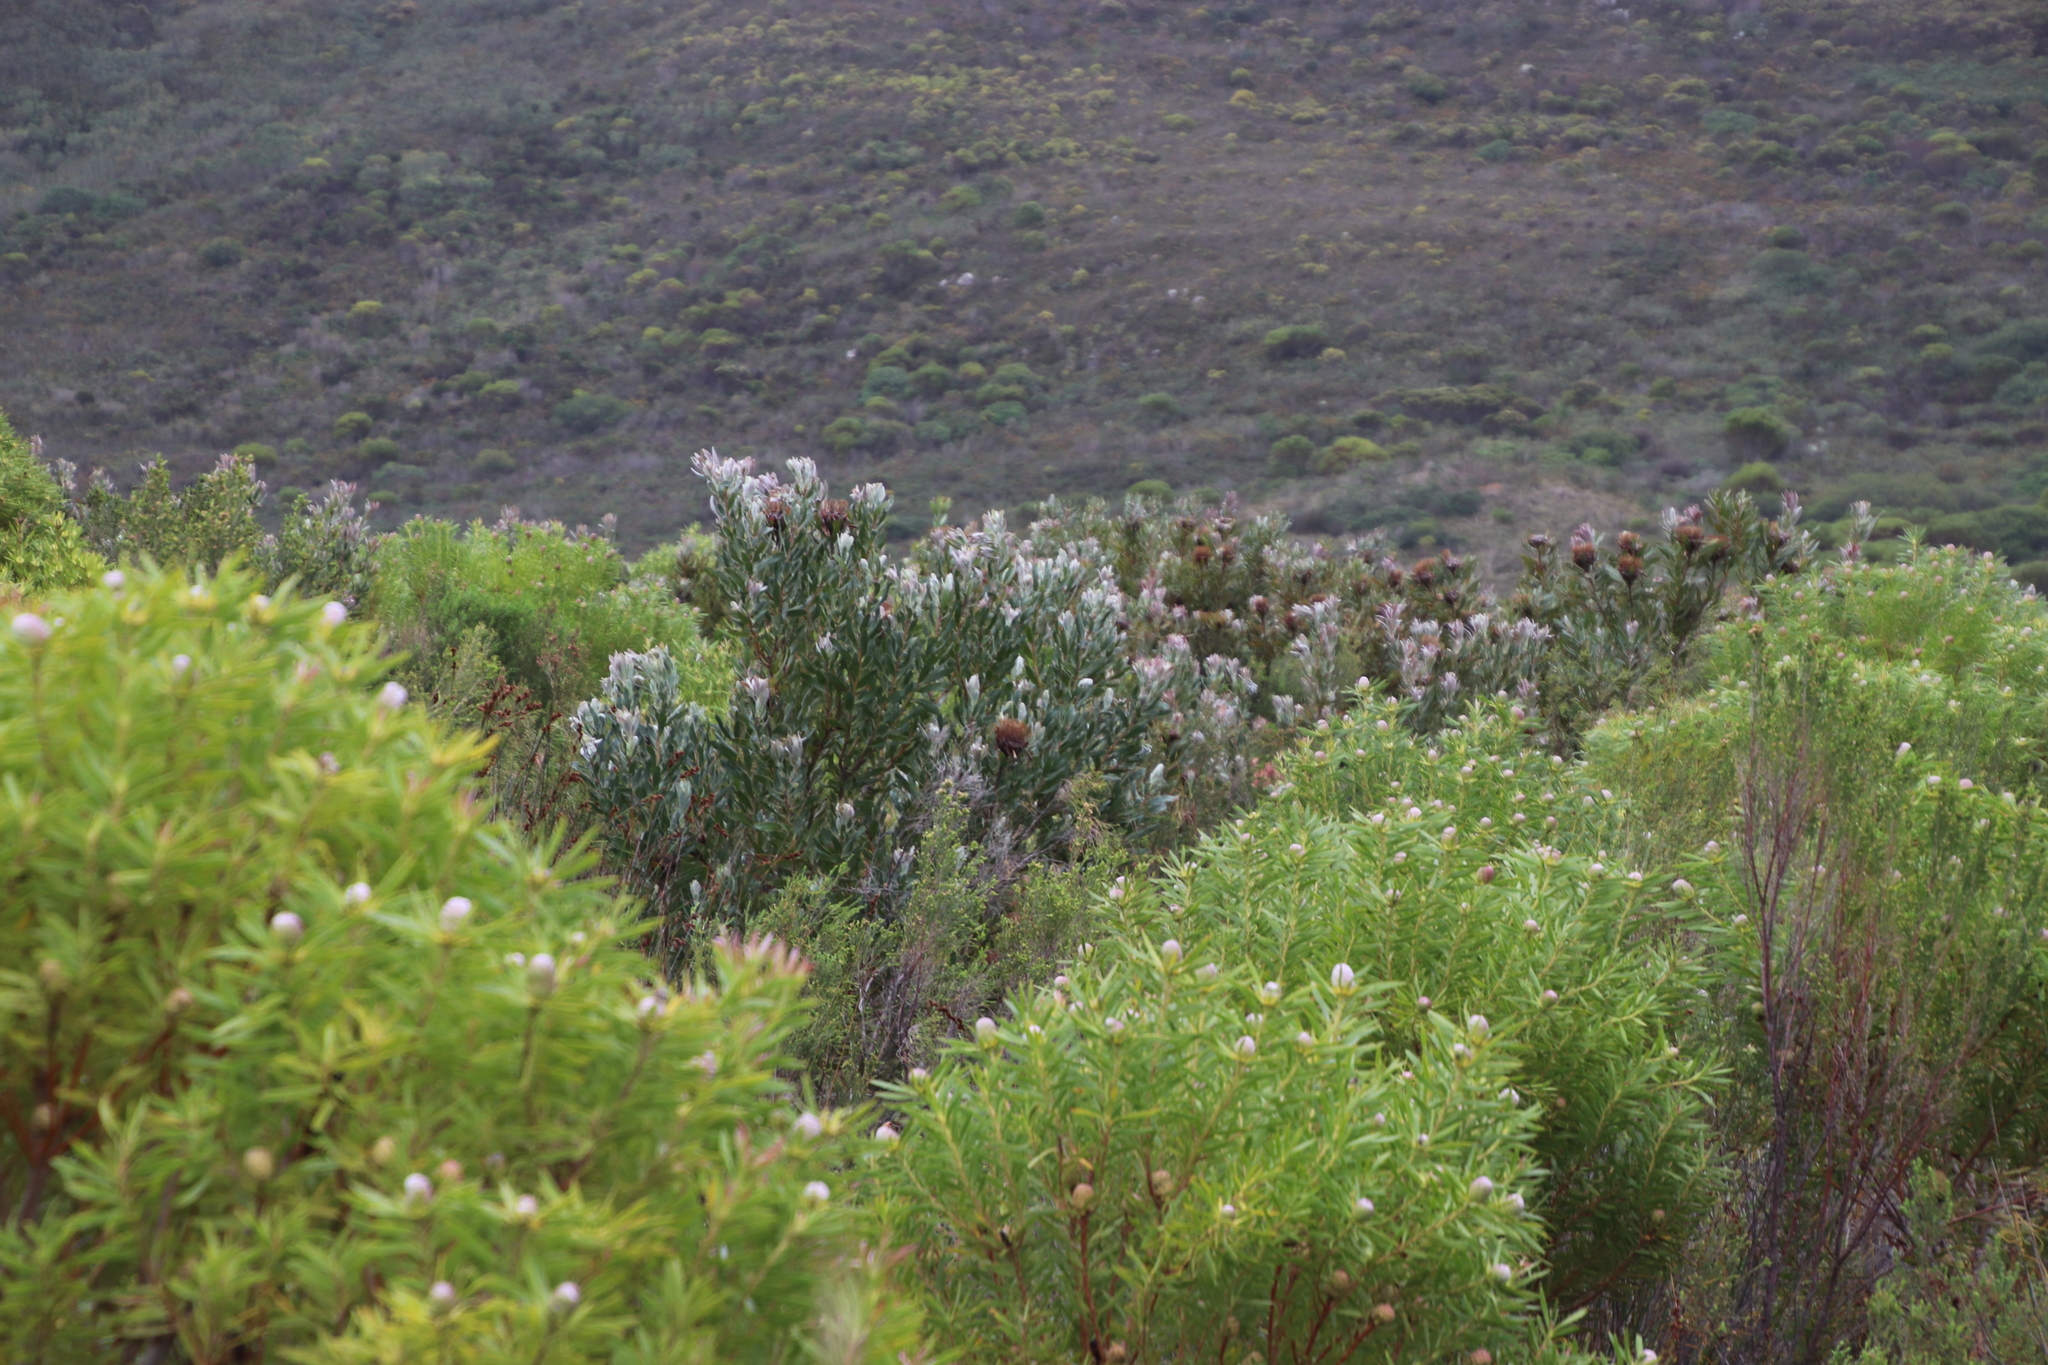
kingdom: Plantae
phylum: Tracheophyta
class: Magnoliopsida
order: Proteales
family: Proteaceae
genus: Protea
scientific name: Protea susannae
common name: Foetid-leaf sugarbush
